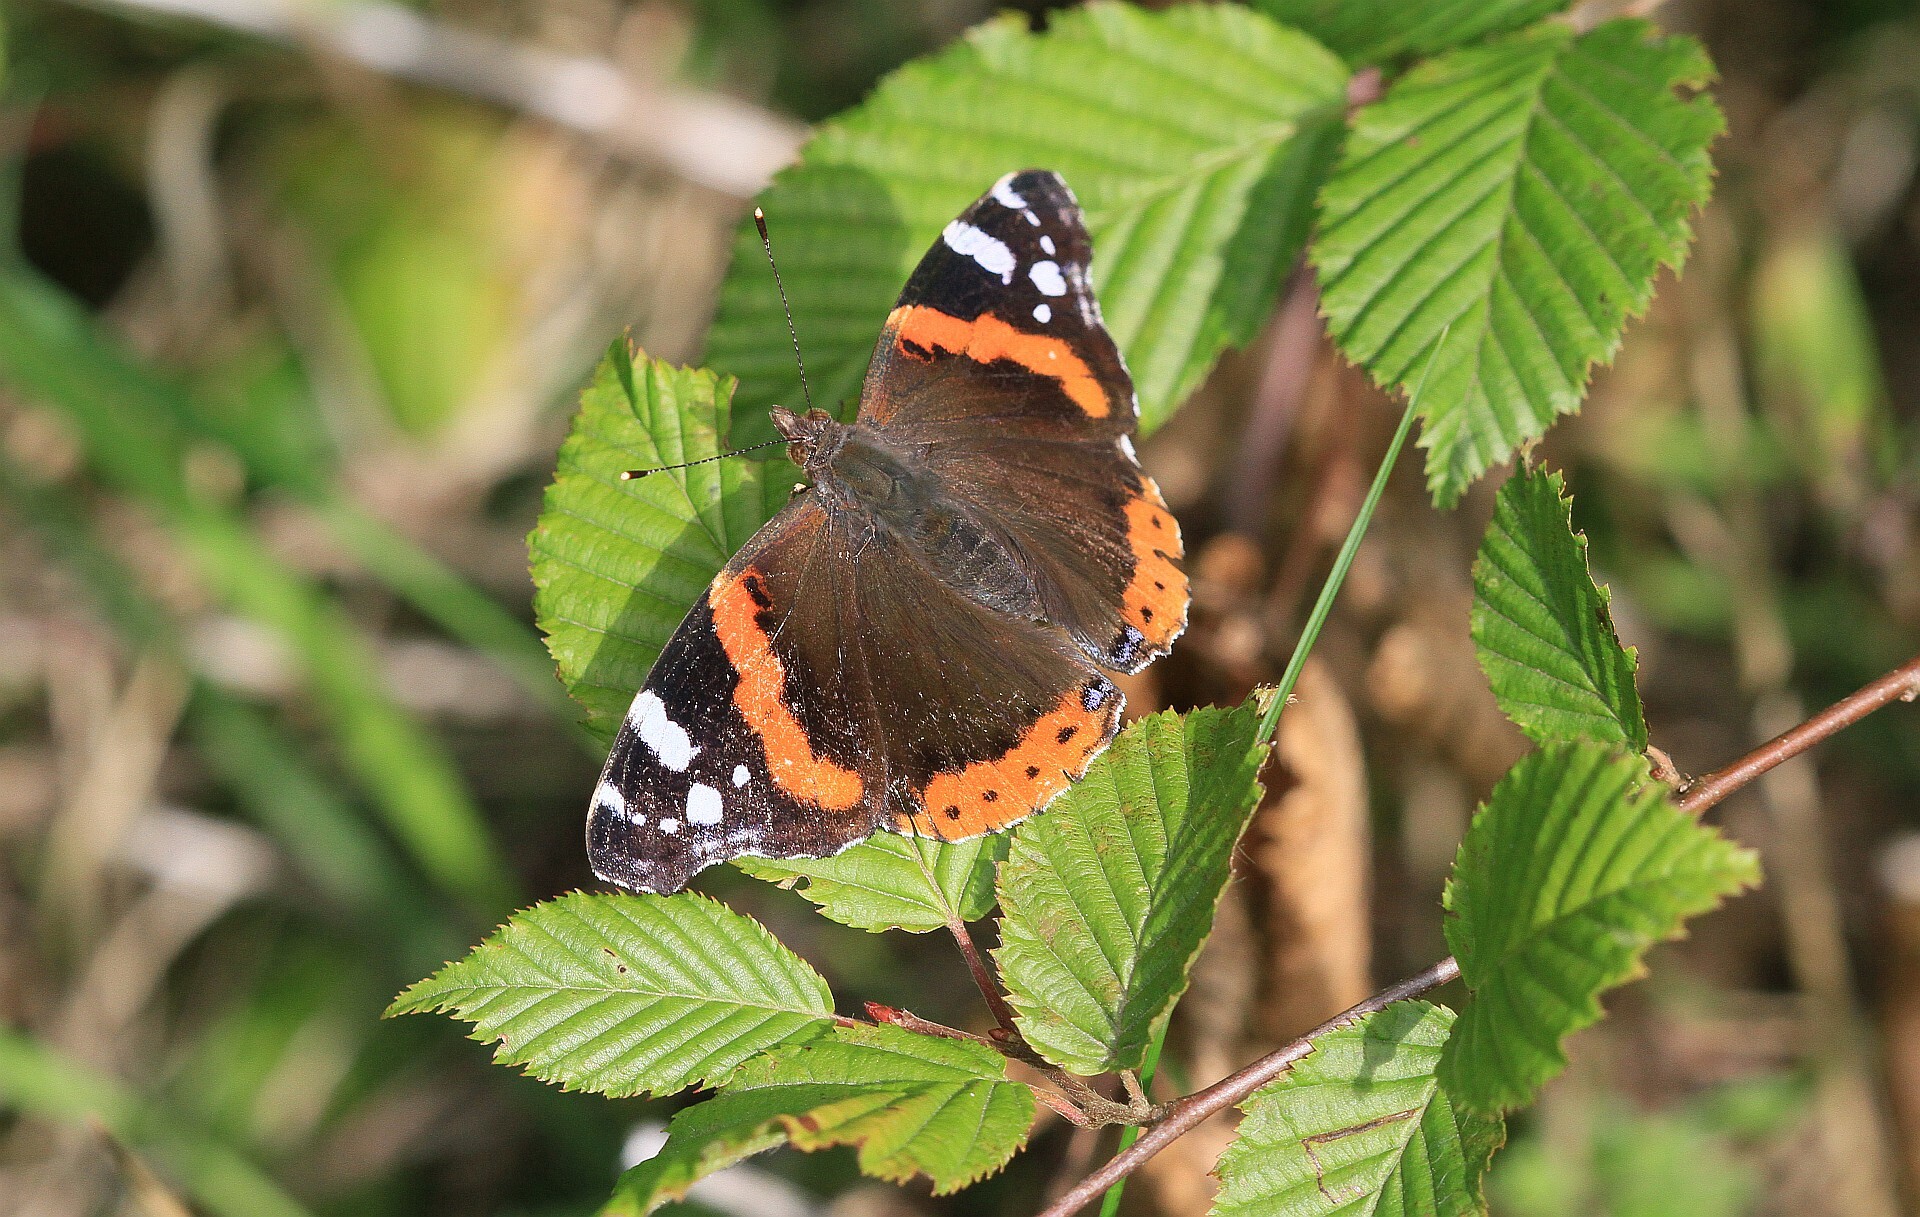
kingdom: Animalia
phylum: Arthropoda
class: Insecta
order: Lepidoptera
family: Nymphalidae
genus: Vanessa
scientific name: Vanessa atalanta
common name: Red admiral
